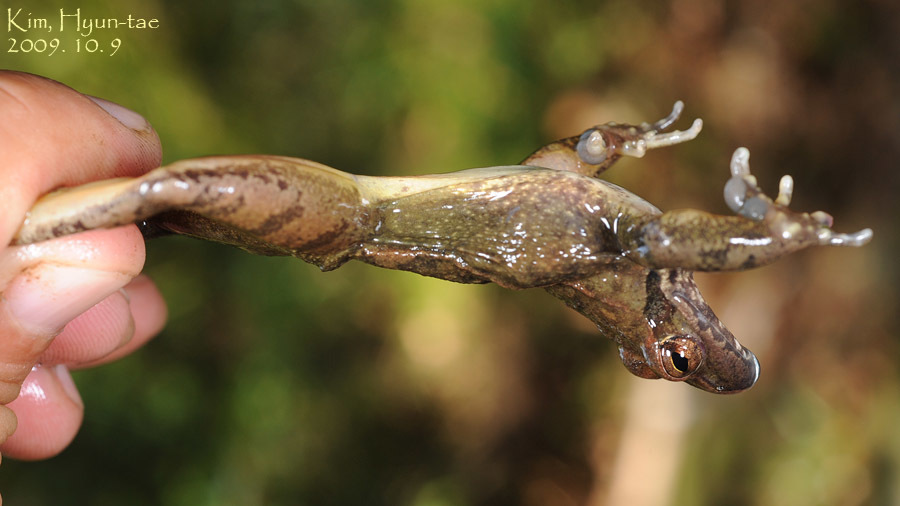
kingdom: Animalia
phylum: Chordata
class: Amphibia
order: Anura
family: Ranidae
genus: Rana
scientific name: Rana huanrenensis
